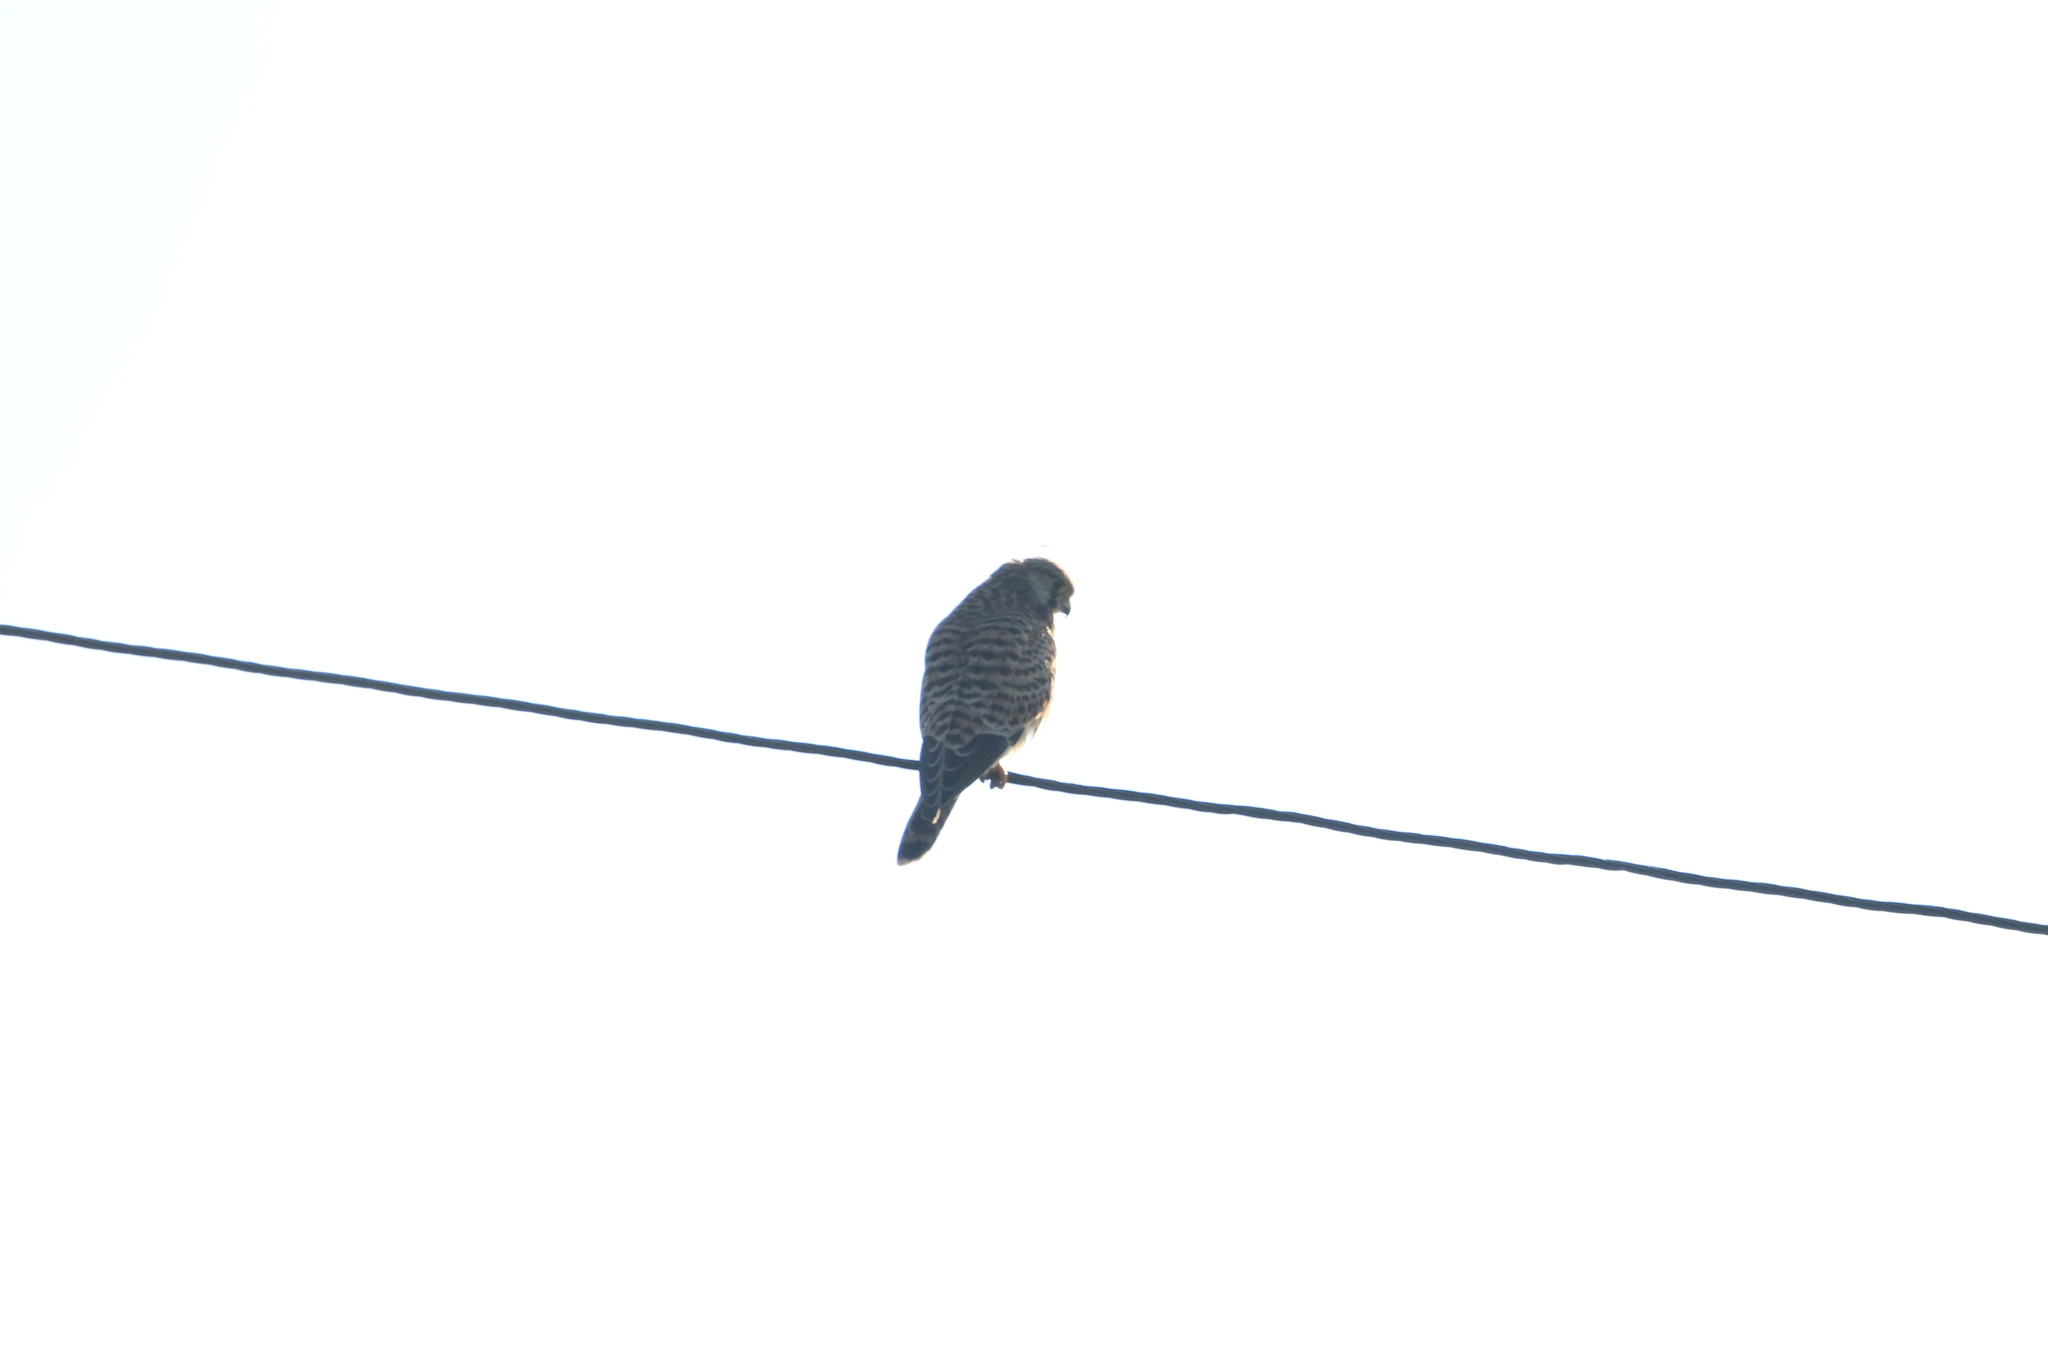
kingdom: Animalia
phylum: Chordata
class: Aves
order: Falconiformes
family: Falconidae
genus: Falco
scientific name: Falco tinnunculus
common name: Common kestrel
